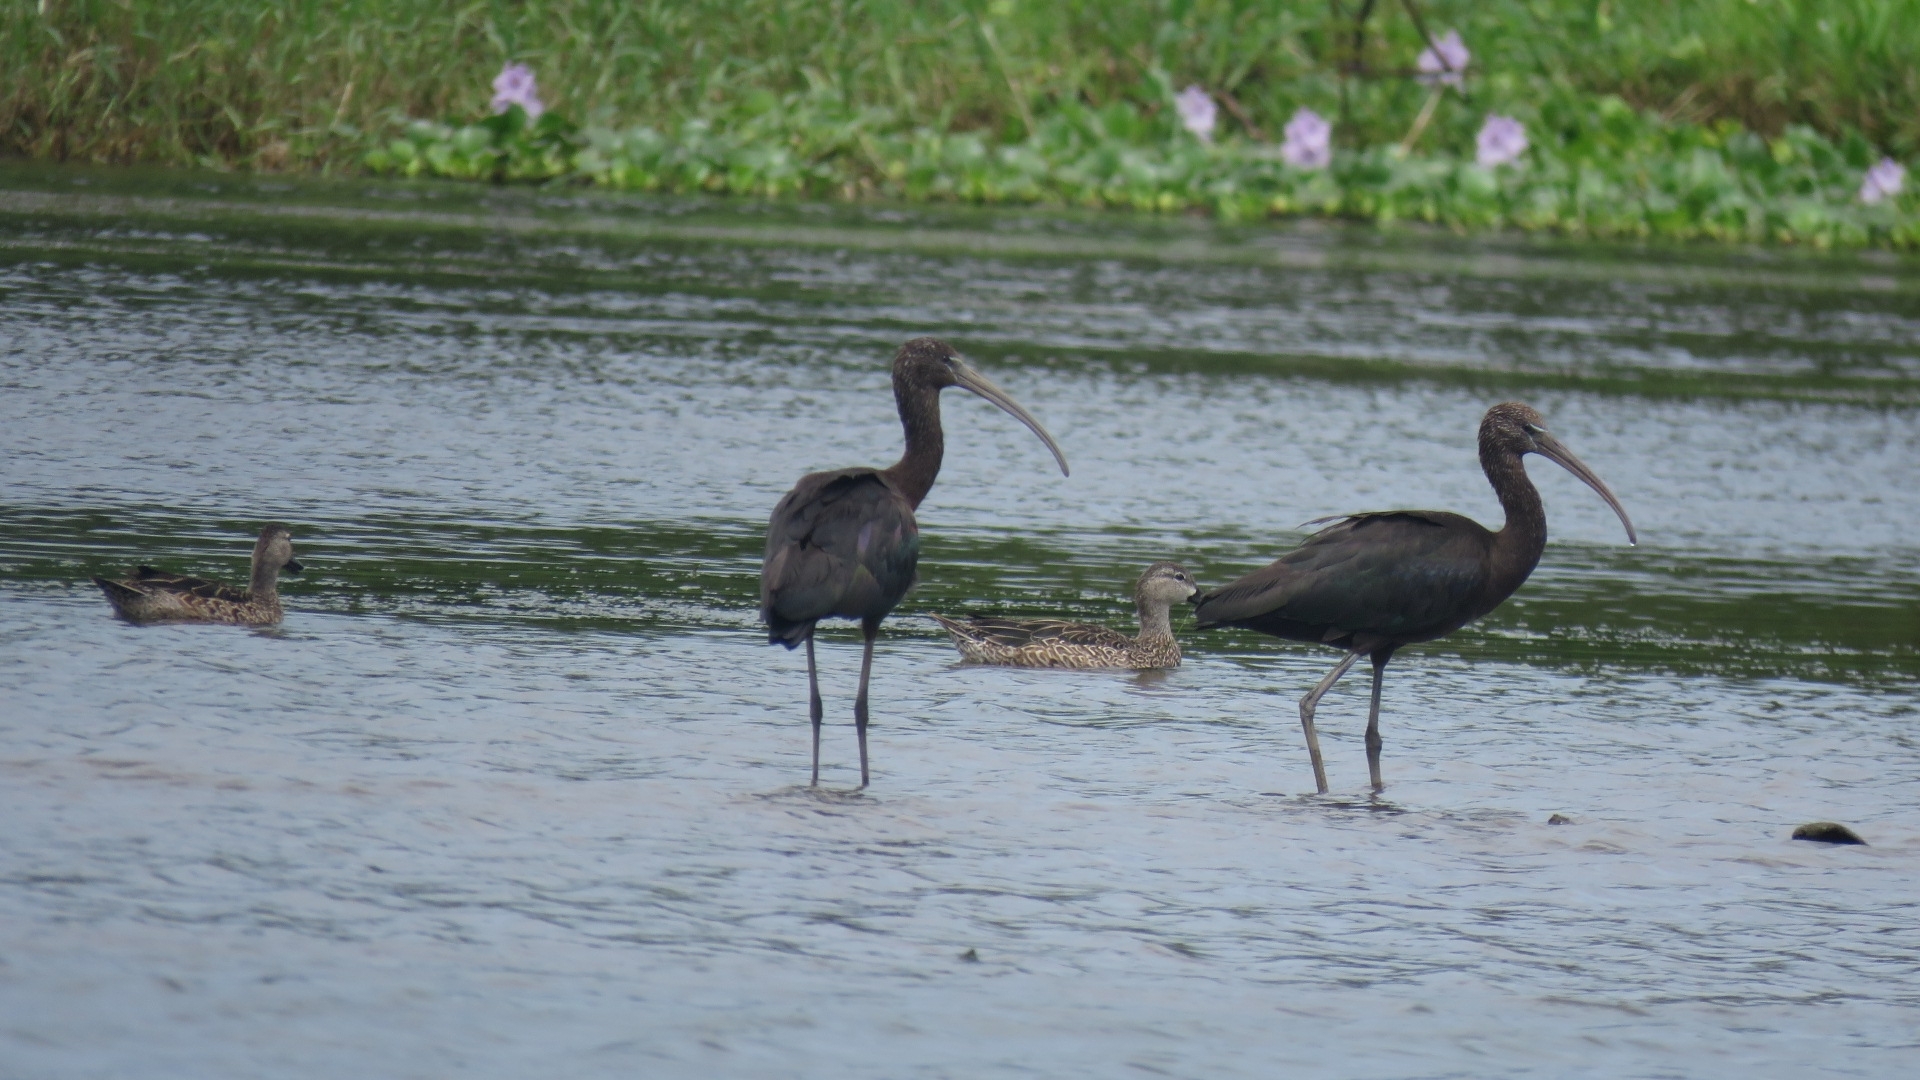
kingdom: Animalia
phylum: Chordata
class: Aves
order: Pelecaniformes
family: Threskiornithidae
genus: Plegadis
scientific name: Plegadis falcinellus
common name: Glossy ibis
